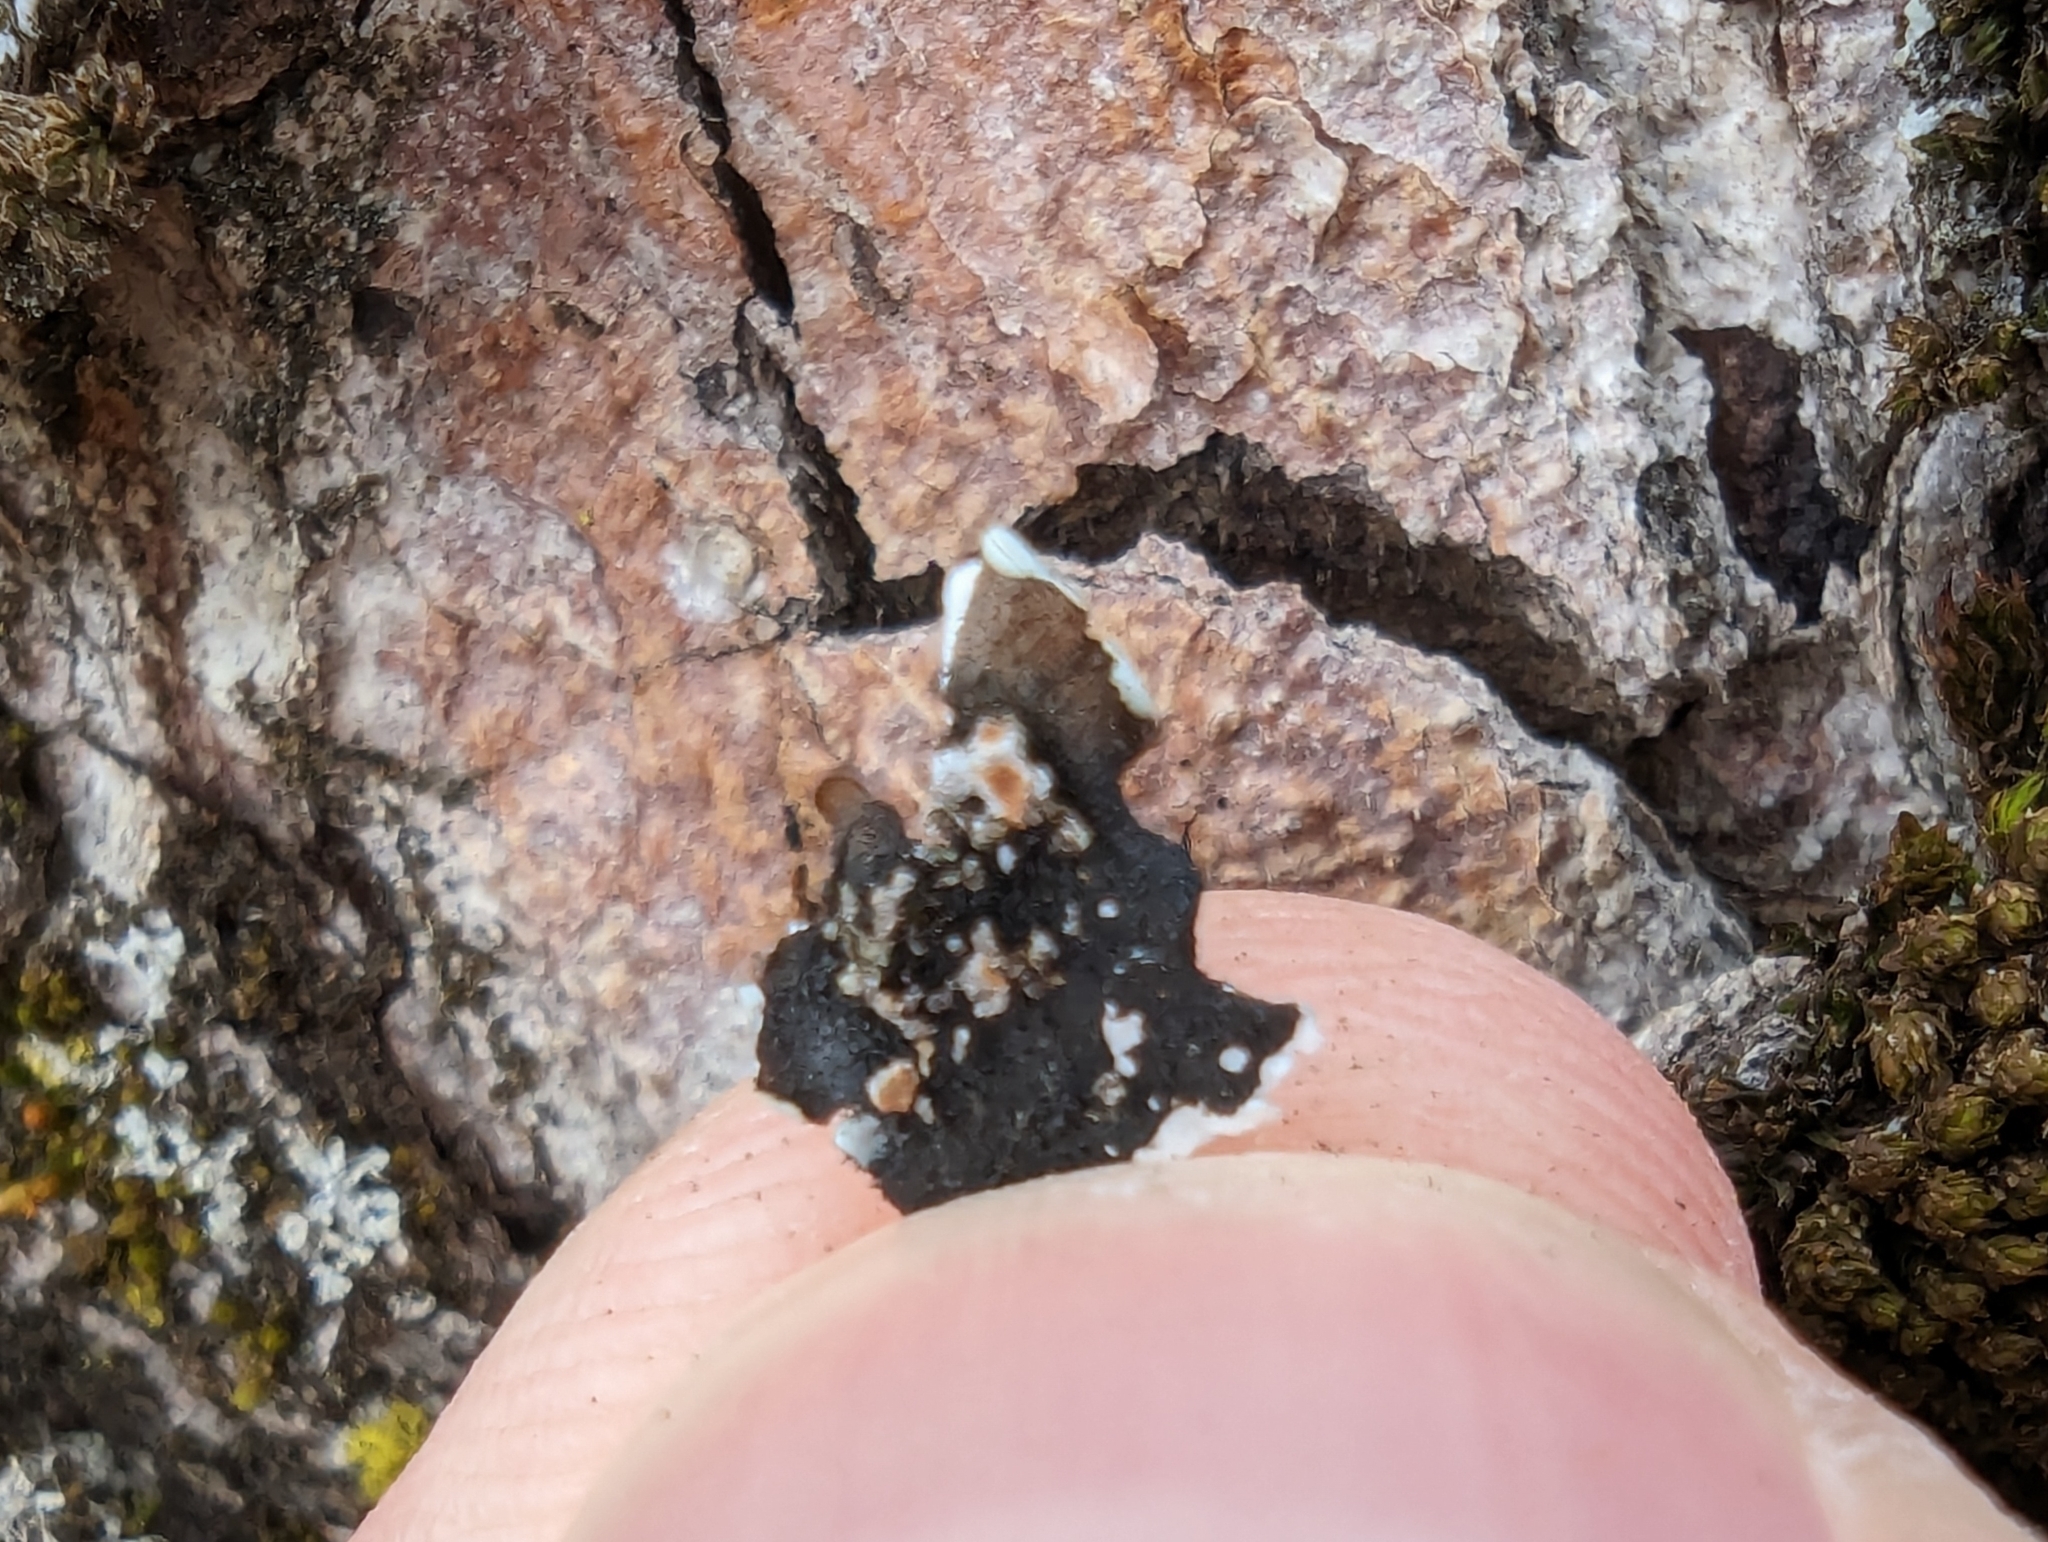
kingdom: Fungi
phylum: Ascomycota
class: Lecanoromycetes
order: Lecanorales
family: Parmeliaceae
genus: Parmelina
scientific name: Parmelina tiliacea
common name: Linden shield lichen
